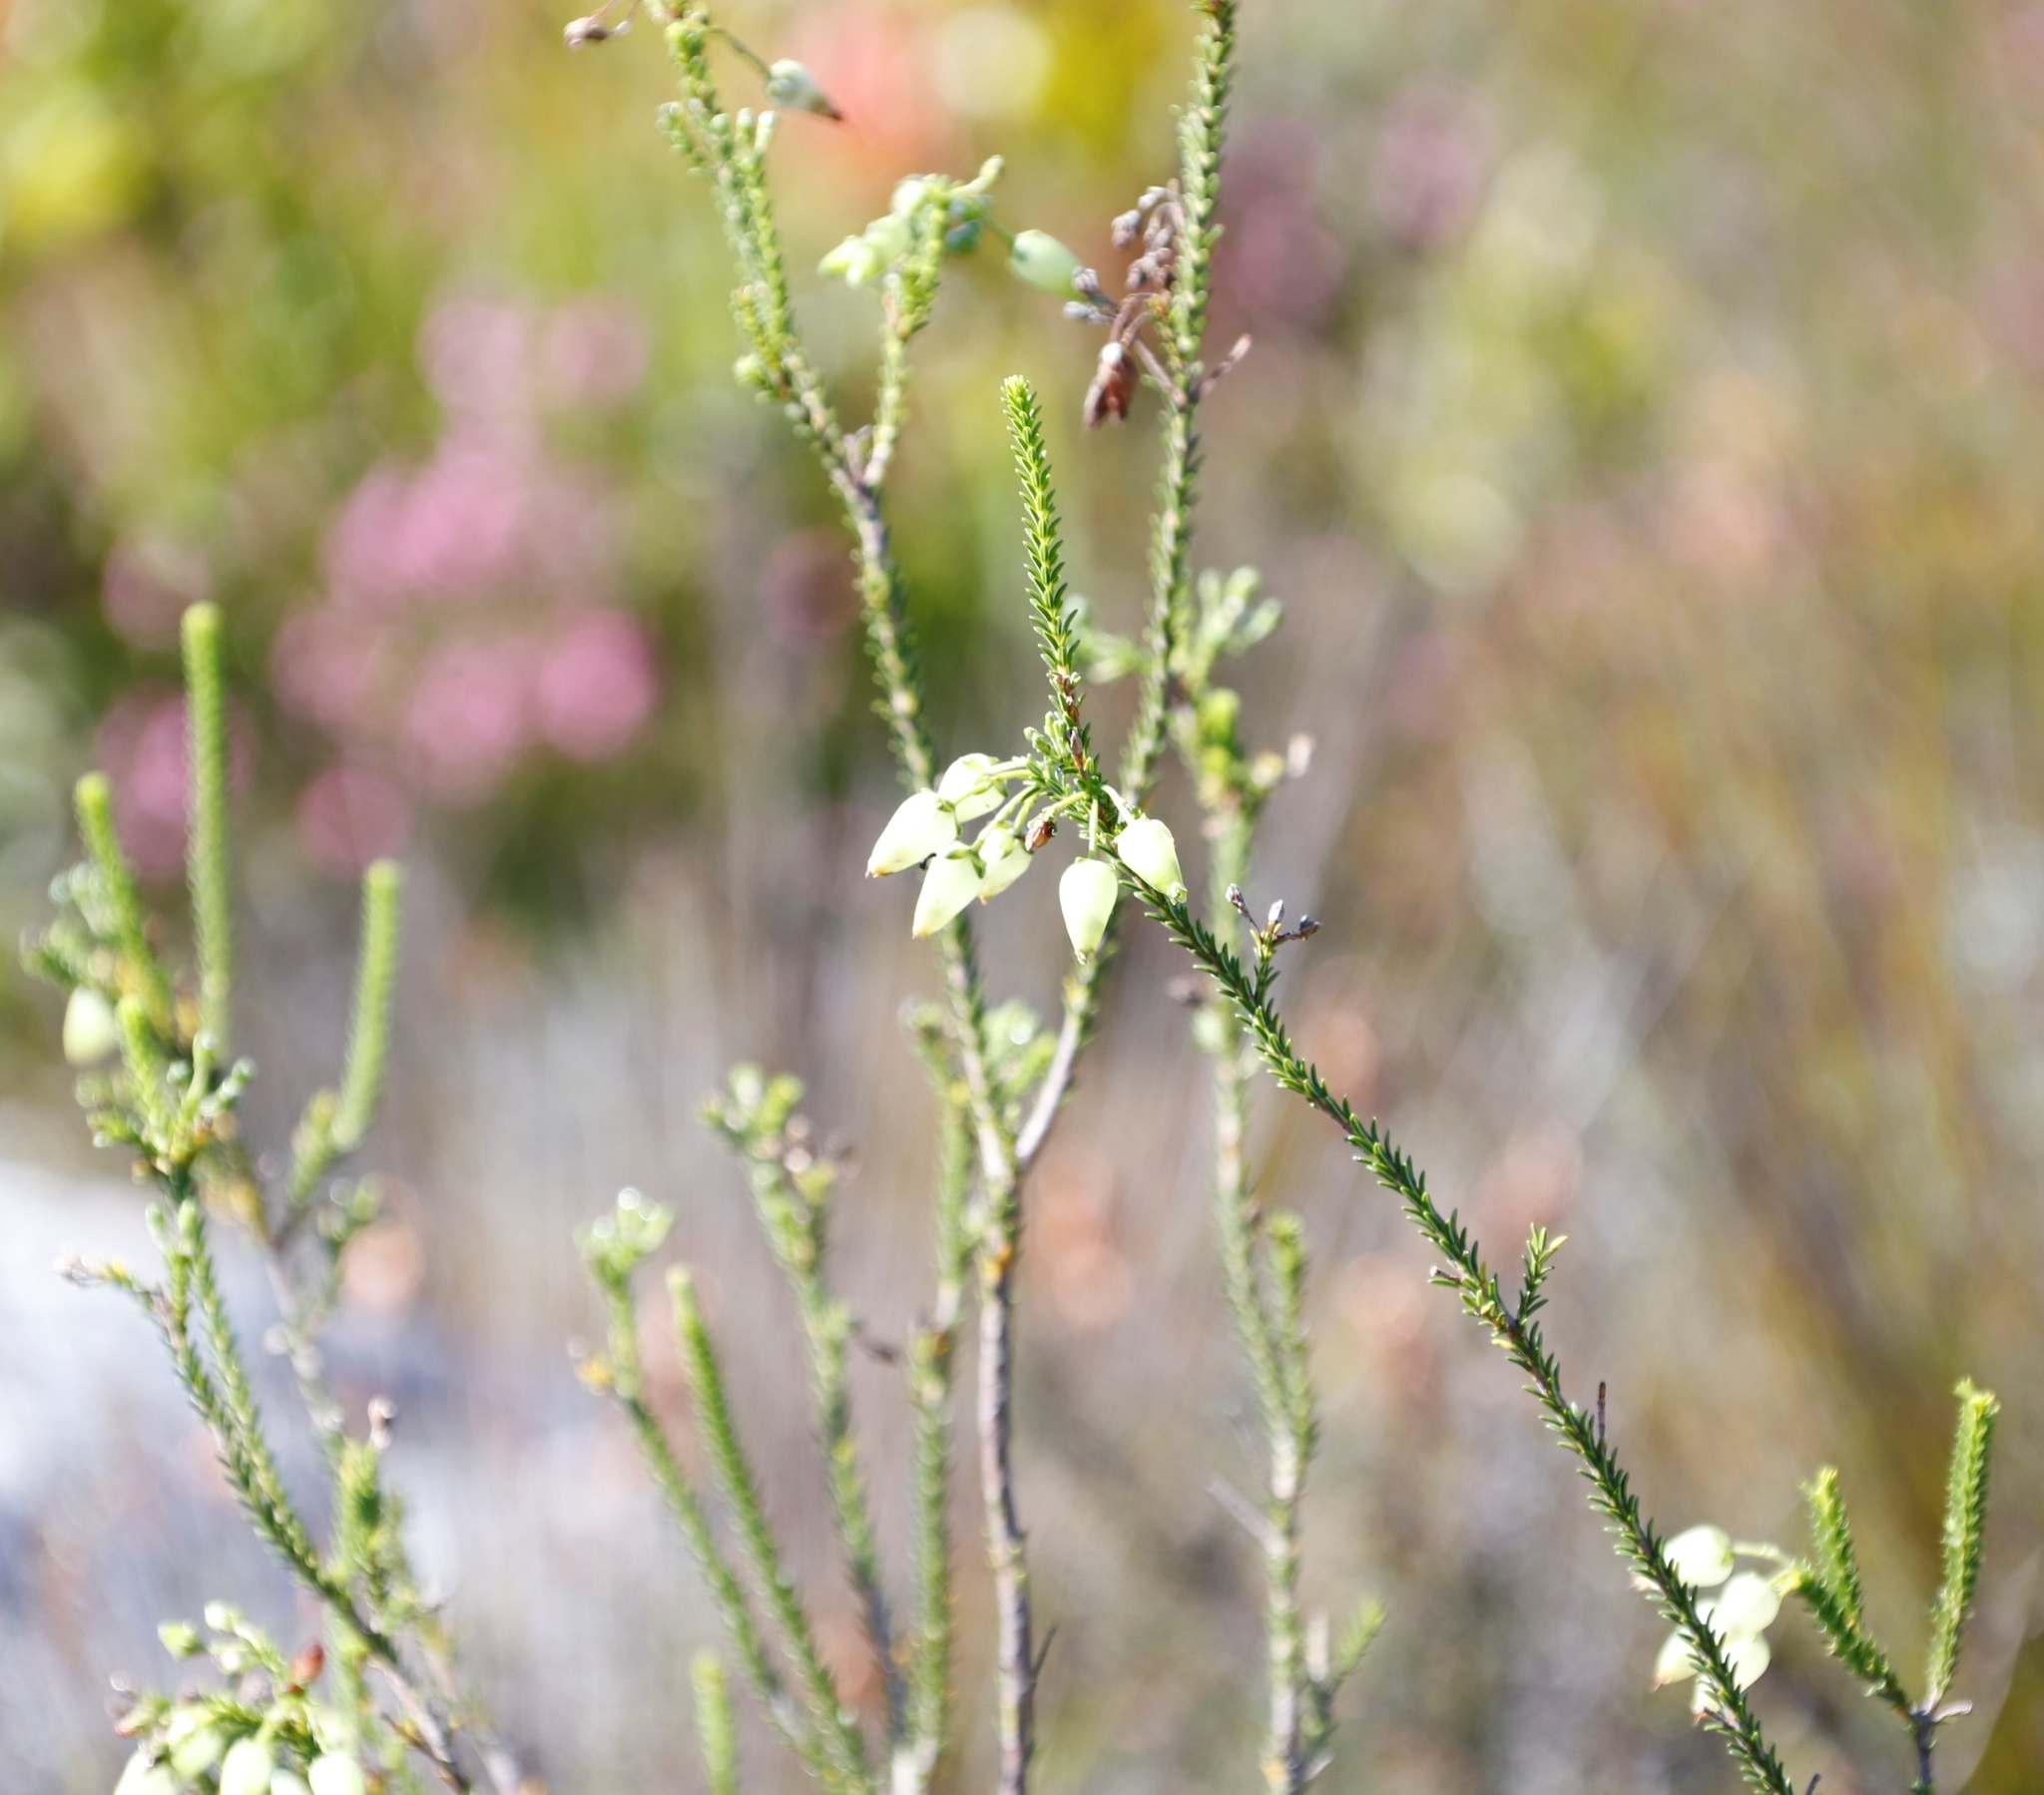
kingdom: Plantae
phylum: Tracheophyta
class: Magnoliopsida
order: Ericales
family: Ericaceae
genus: Erica
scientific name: Erica urna-viridis
